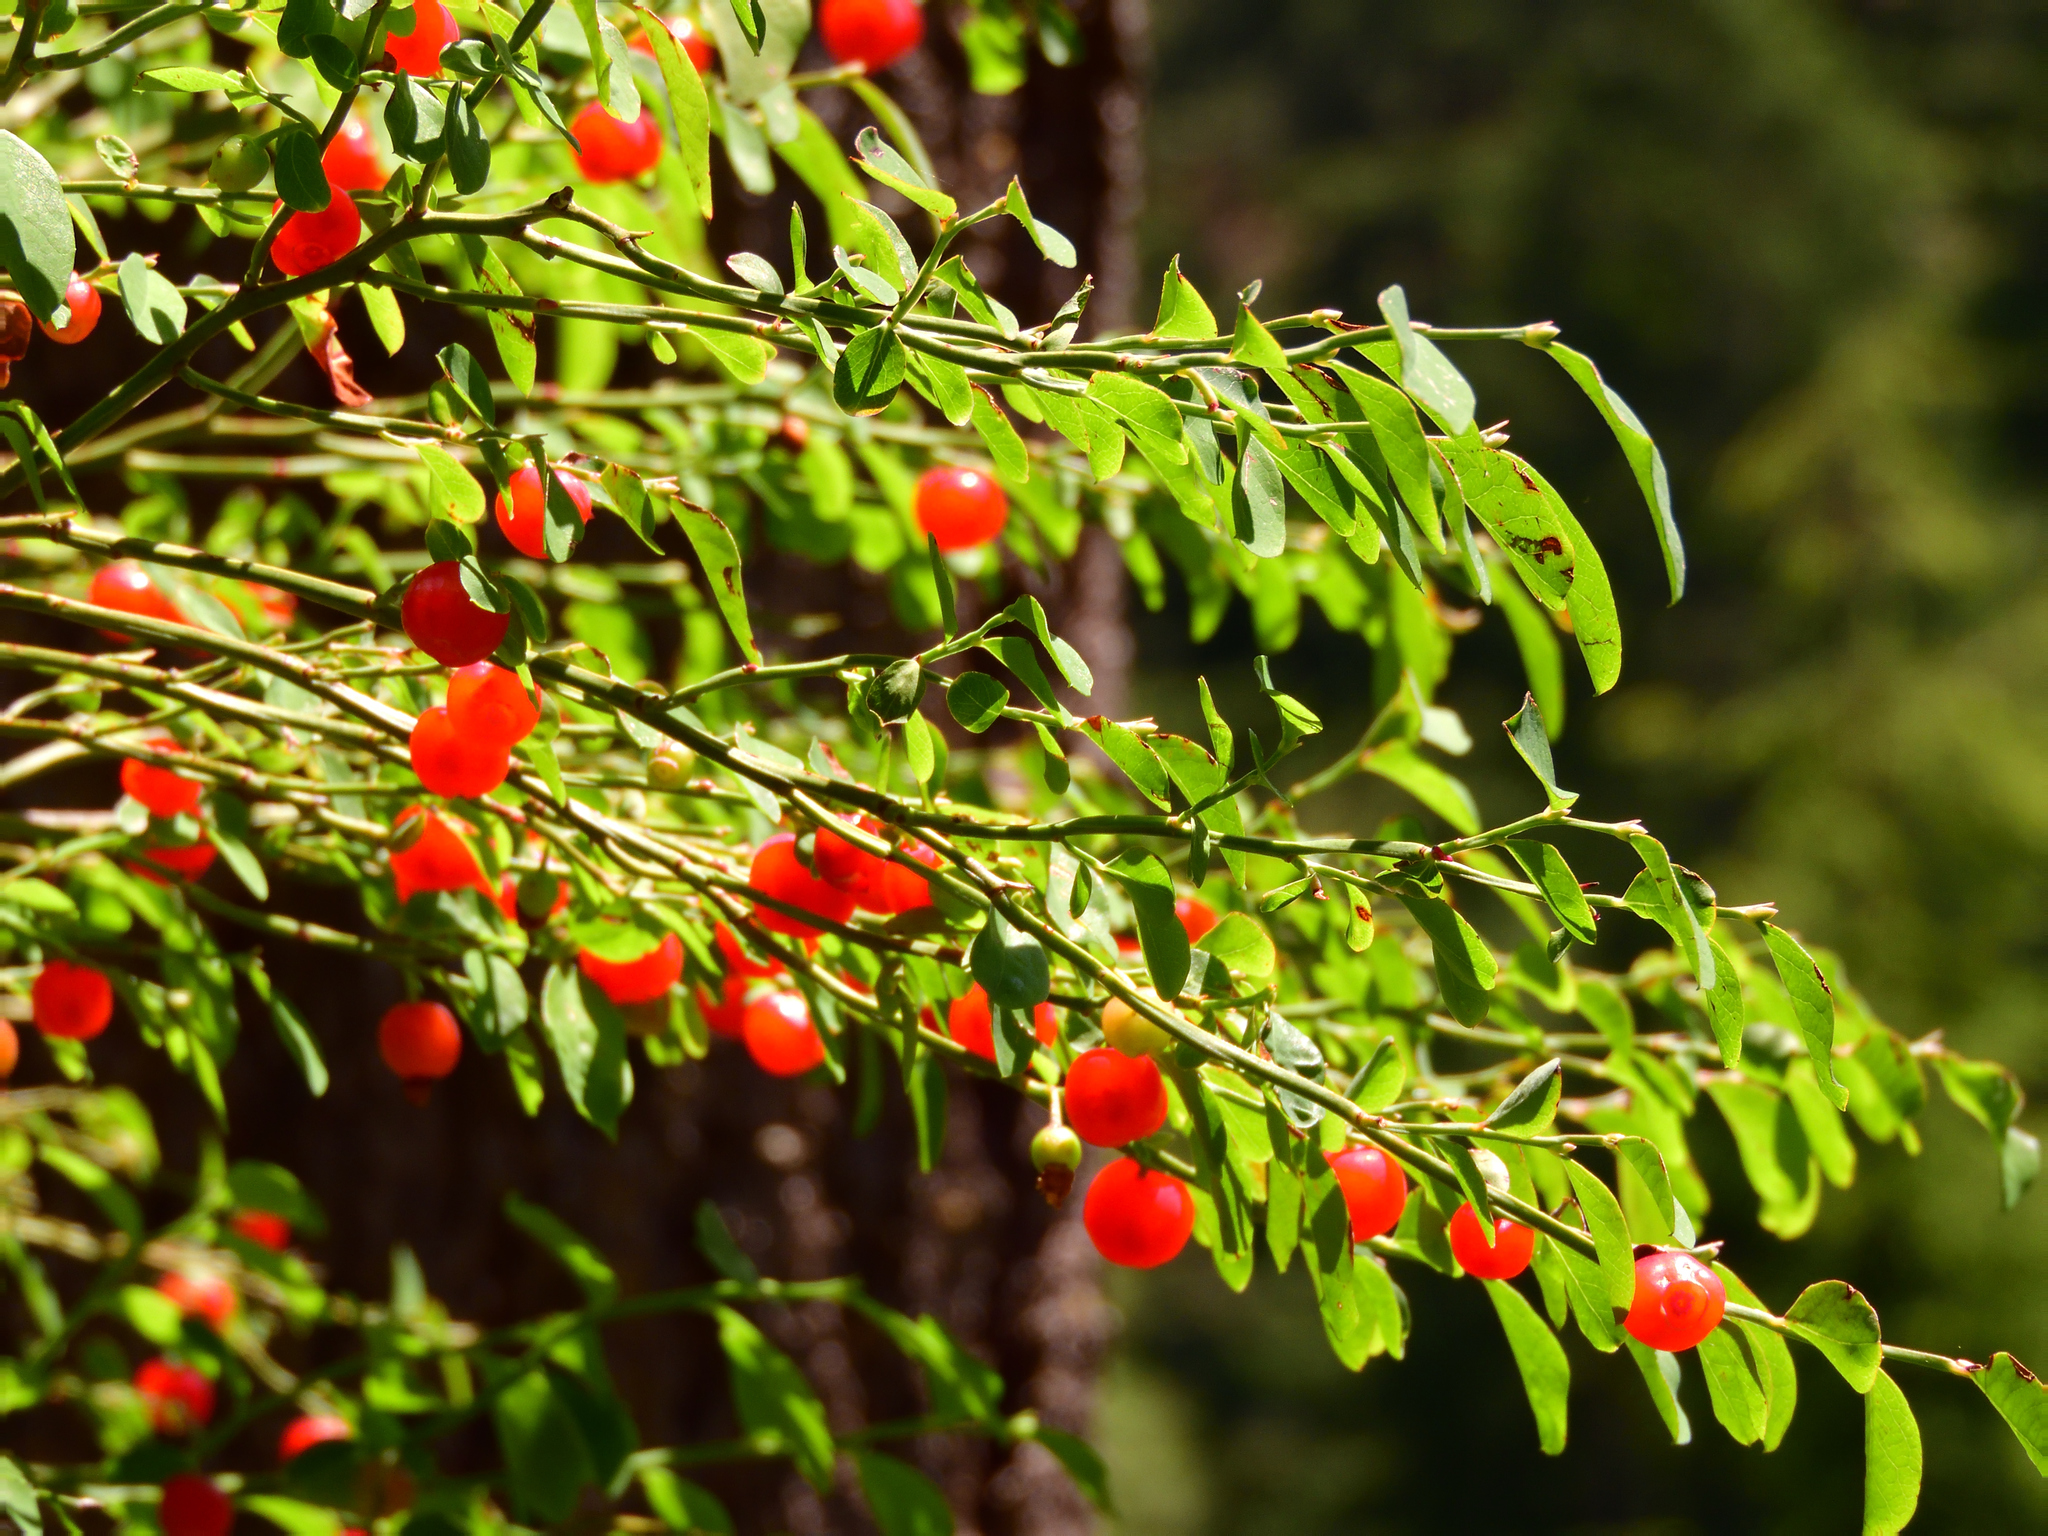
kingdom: Plantae
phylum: Tracheophyta
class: Magnoliopsida
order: Ericales
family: Ericaceae
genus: Vaccinium
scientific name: Vaccinium parvifolium
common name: Red-huckleberry
